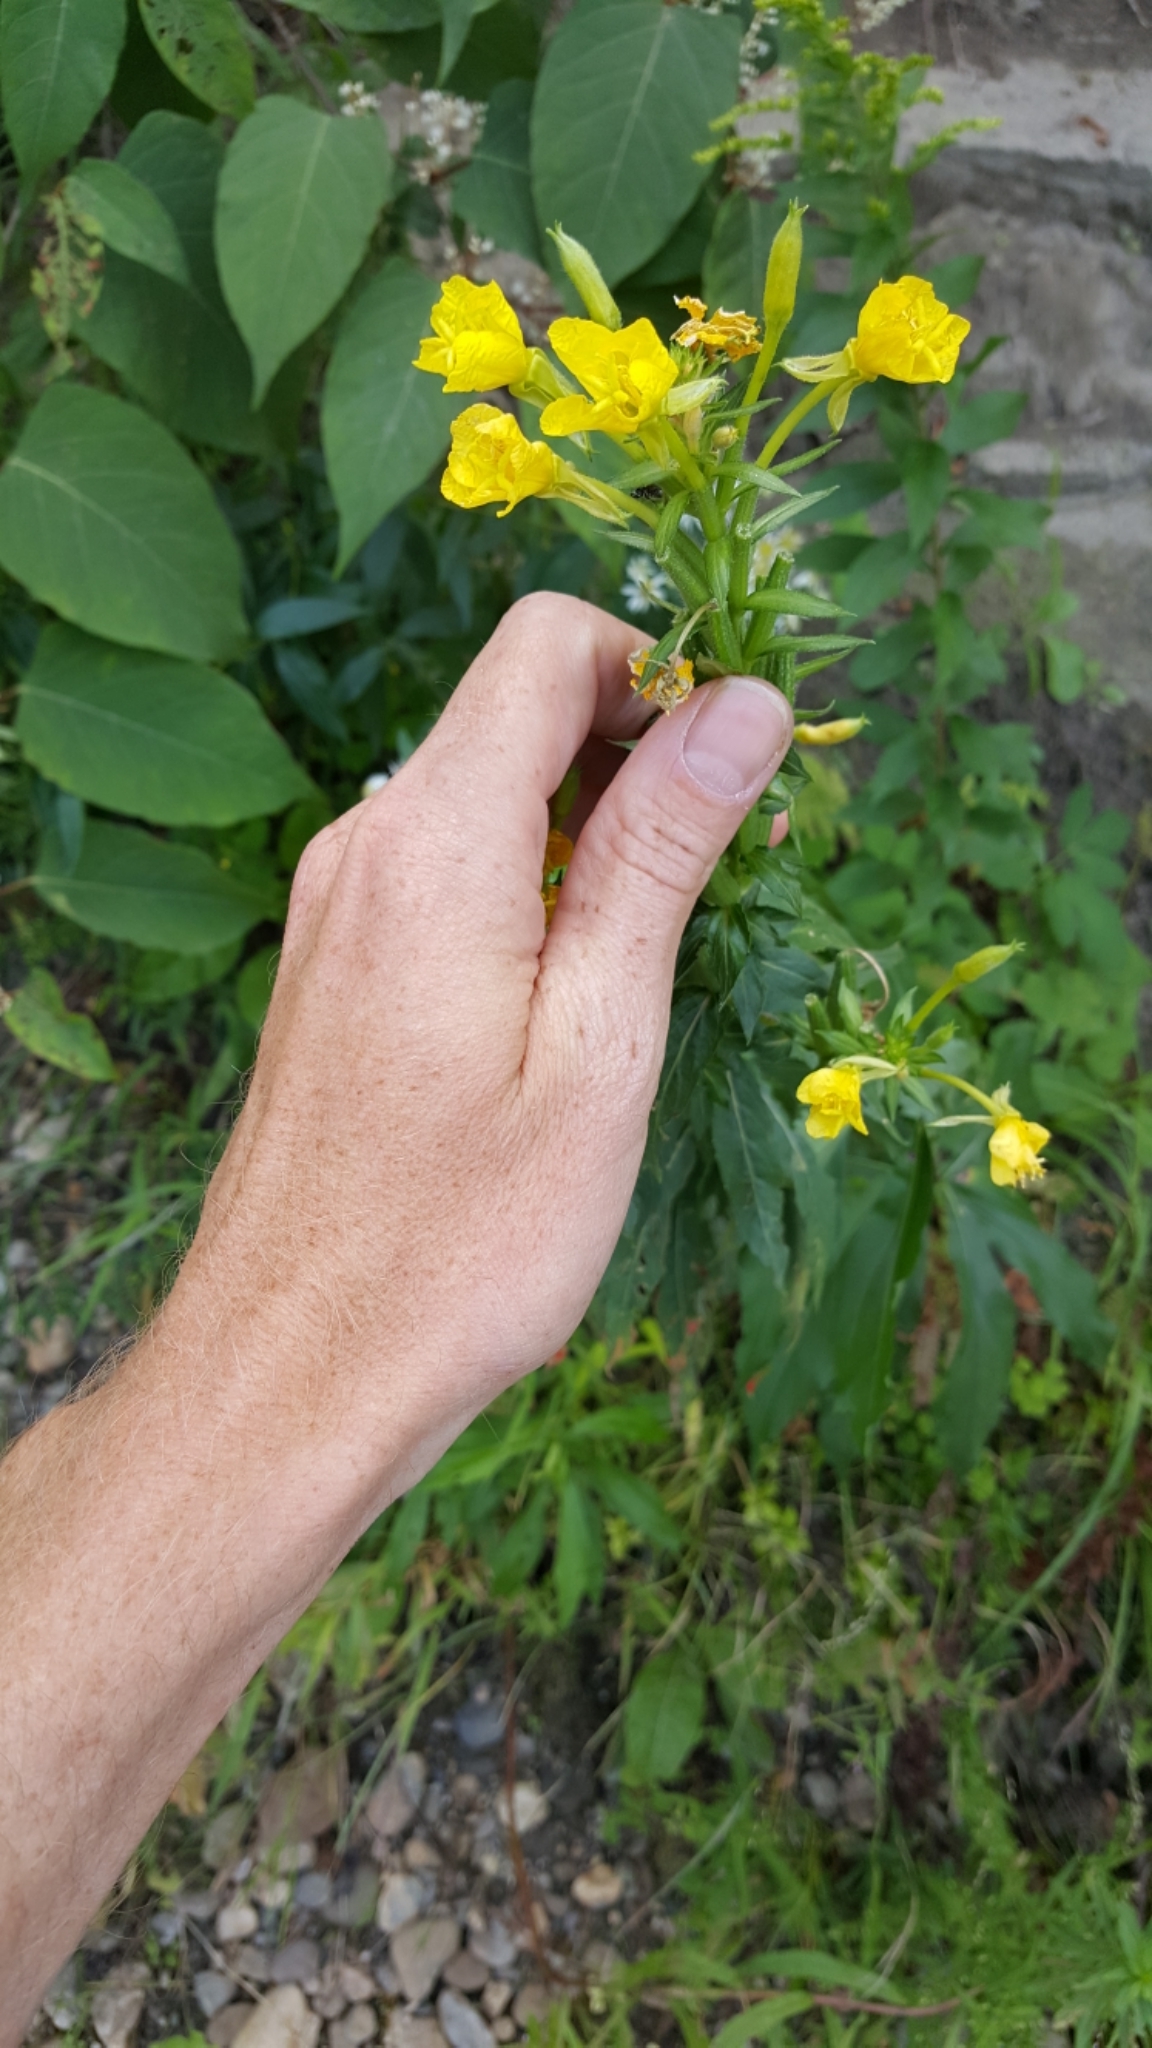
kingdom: Plantae
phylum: Tracheophyta
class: Magnoliopsida
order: Myrtales
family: Onagraceae
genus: Oenothera
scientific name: Oenothera biennis
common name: Common evening-primrose
